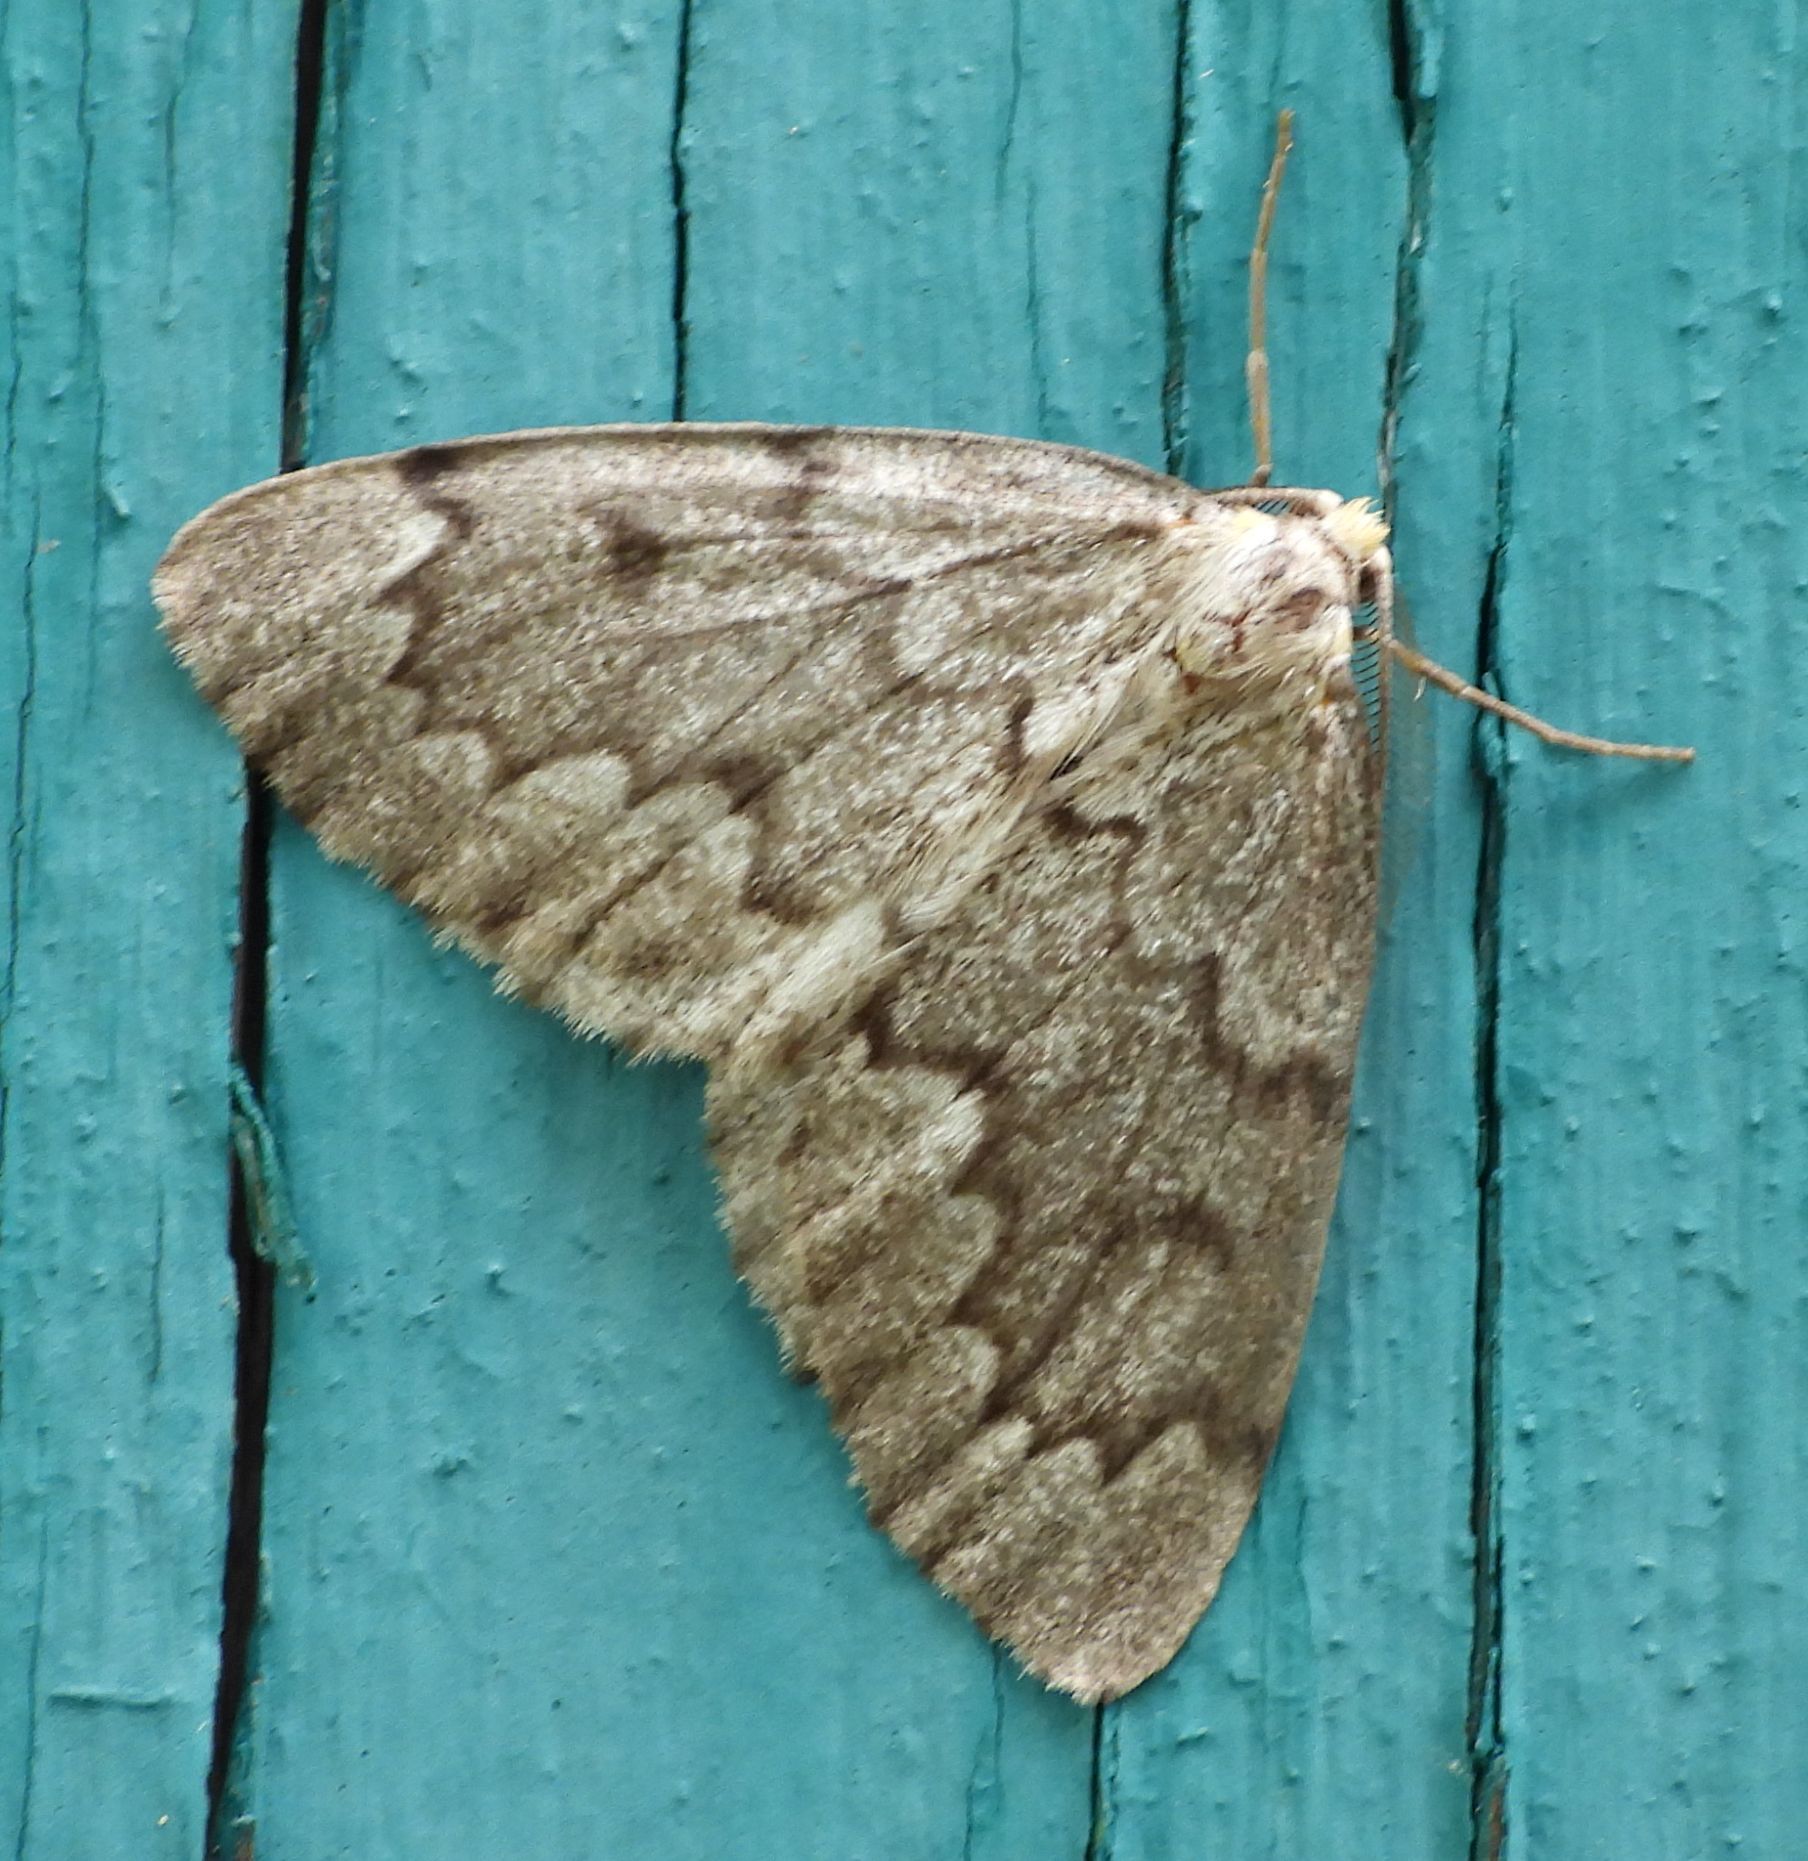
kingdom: Animalia
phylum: Arthropoda
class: Insecta
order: Lepidoptera
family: Geometridae
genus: Nepytia
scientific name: Nepytia canosaria
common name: False hemlock looper
